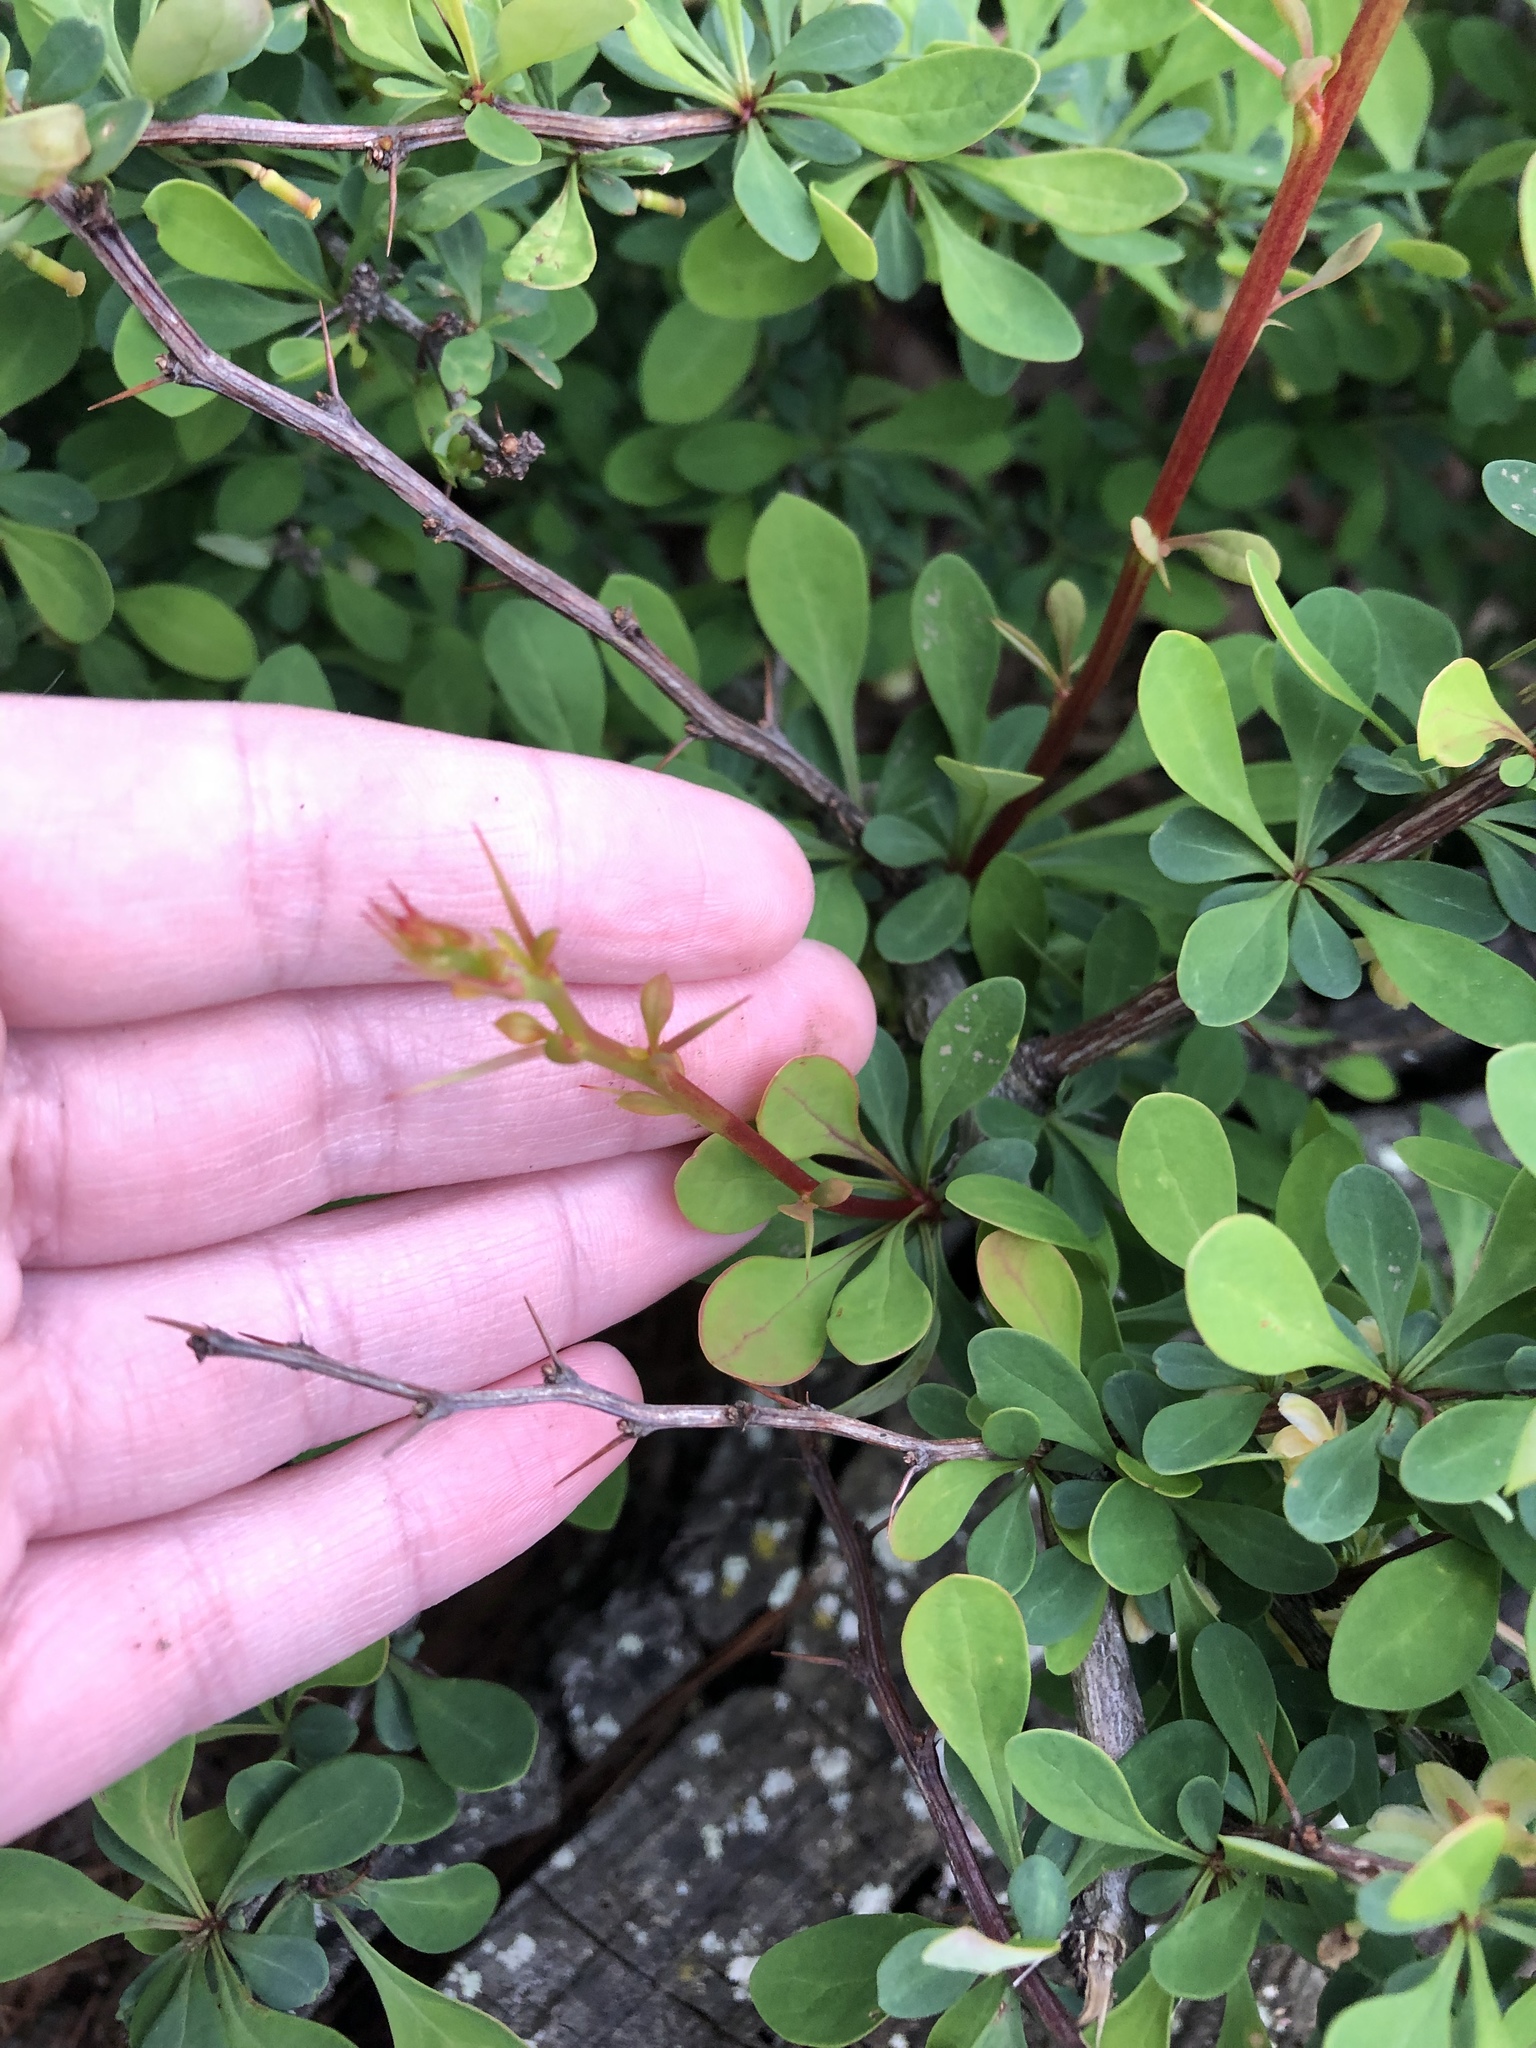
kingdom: Plantae
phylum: Tracheophyta
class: Magnoliopsida
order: Ranunculales
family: Berberidaceae
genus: Berberis
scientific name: Berberis thunbergii
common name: Japanese barberry
